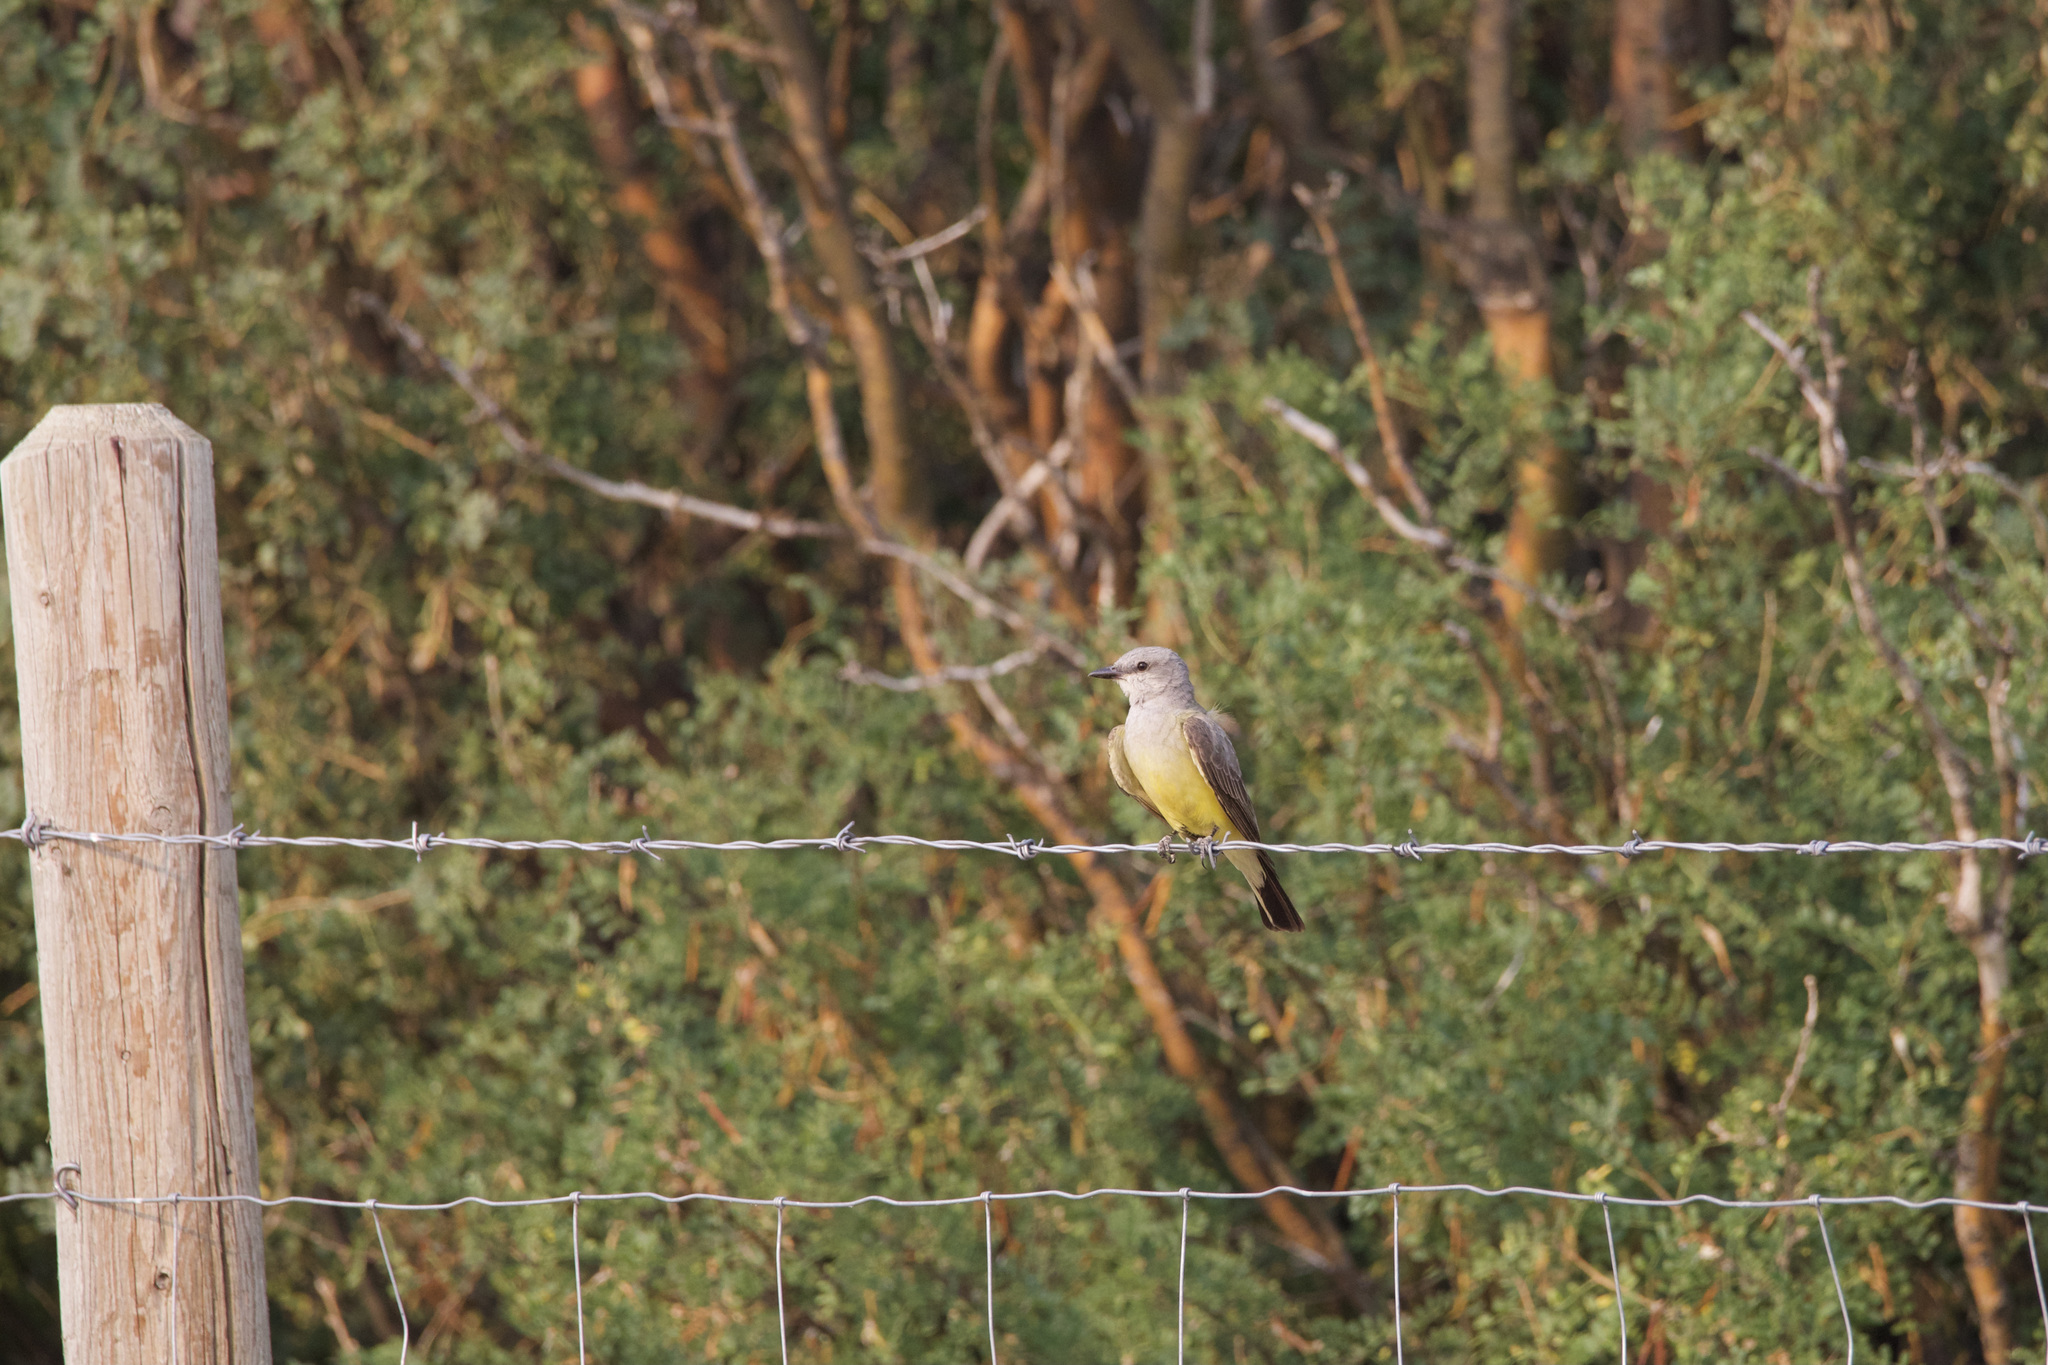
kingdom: Animalia
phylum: Chordata
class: Aves
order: Passeriformes
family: Tyrannidae
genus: Tyrannus
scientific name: Tyrannus verticalis
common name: Western kingbird
